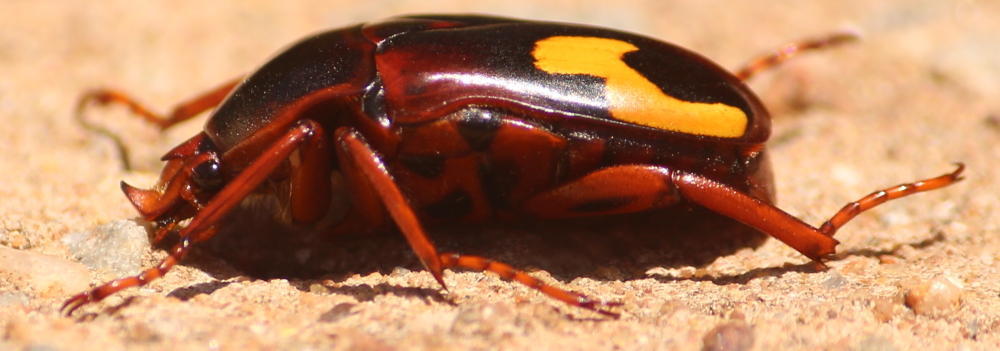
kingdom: Animalia
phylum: Arthropoda
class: Insecta
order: Coleoptera
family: Scarabaeidae
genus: Anisorrhina
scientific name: Anisorrhina flavomaculata
